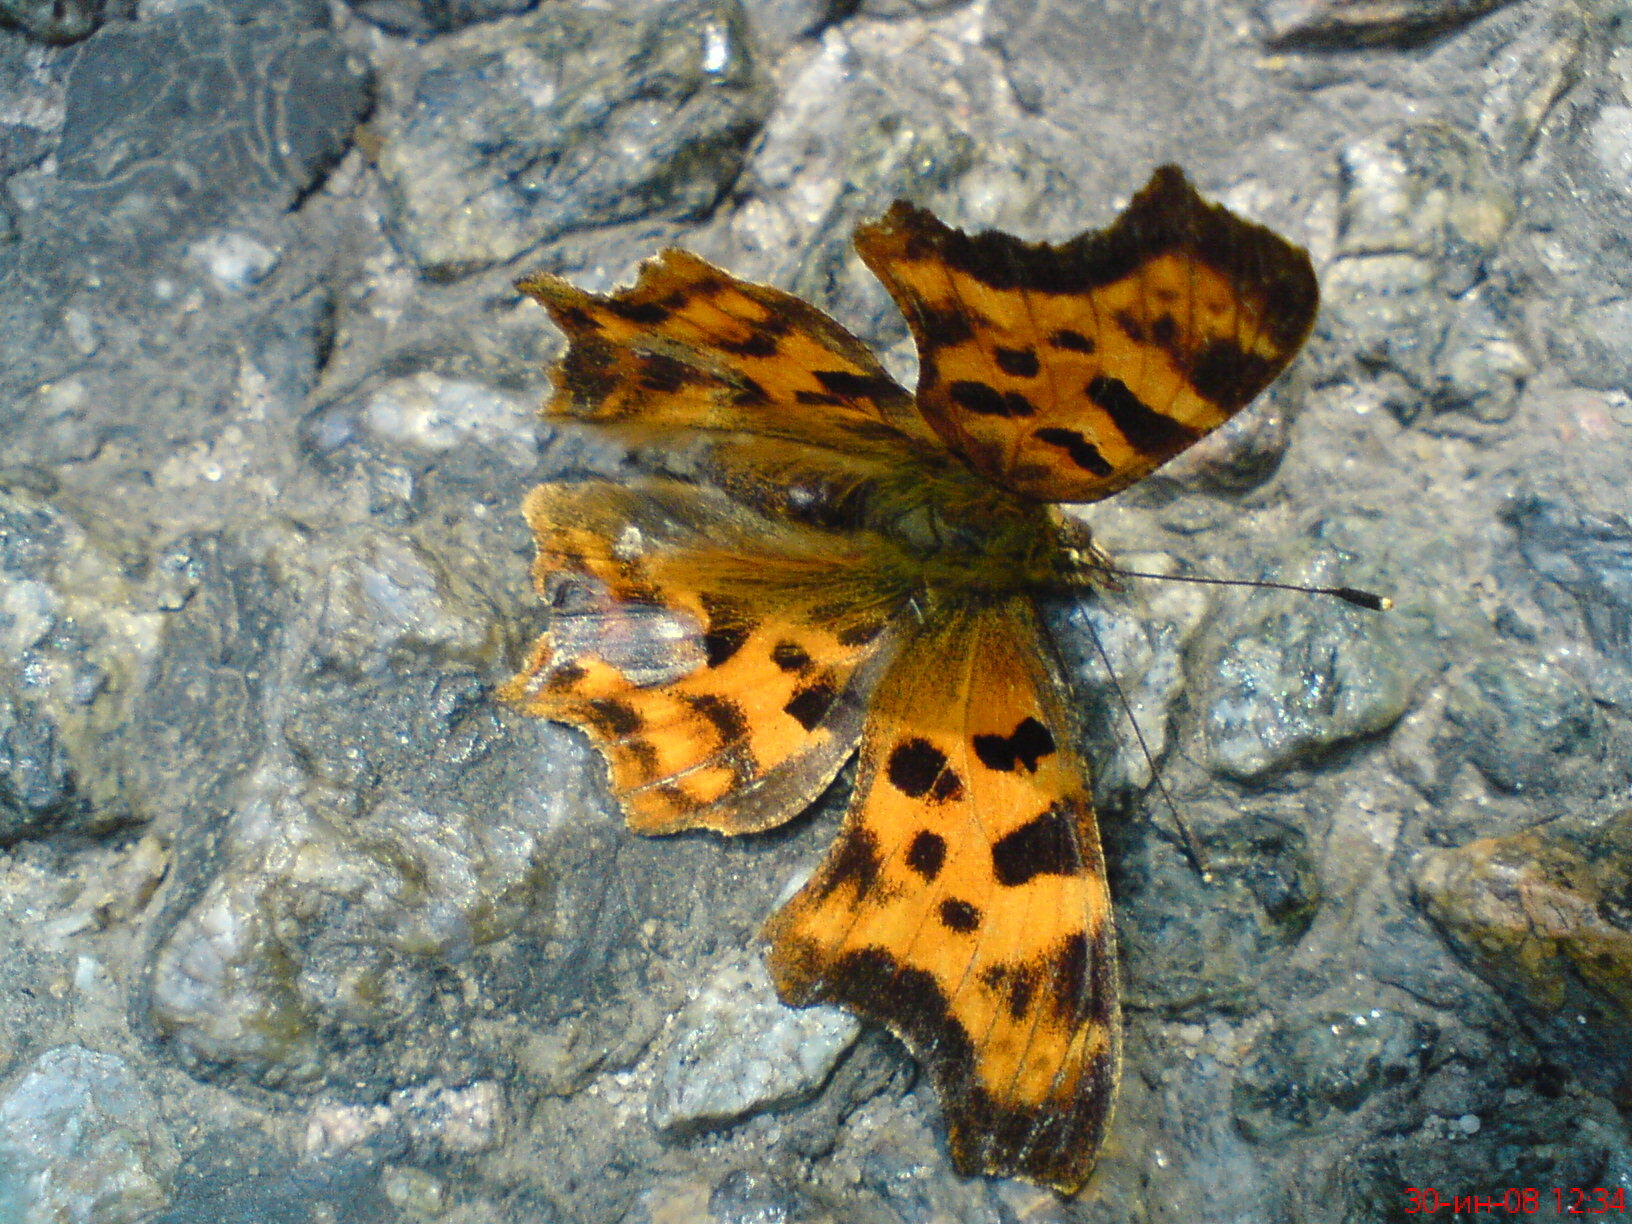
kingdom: Animalia
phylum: Arthropoda
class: Insecta
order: Lepidoptera
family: Nymphalidae
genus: Polygonia
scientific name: Polygonia c-album
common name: Comma
